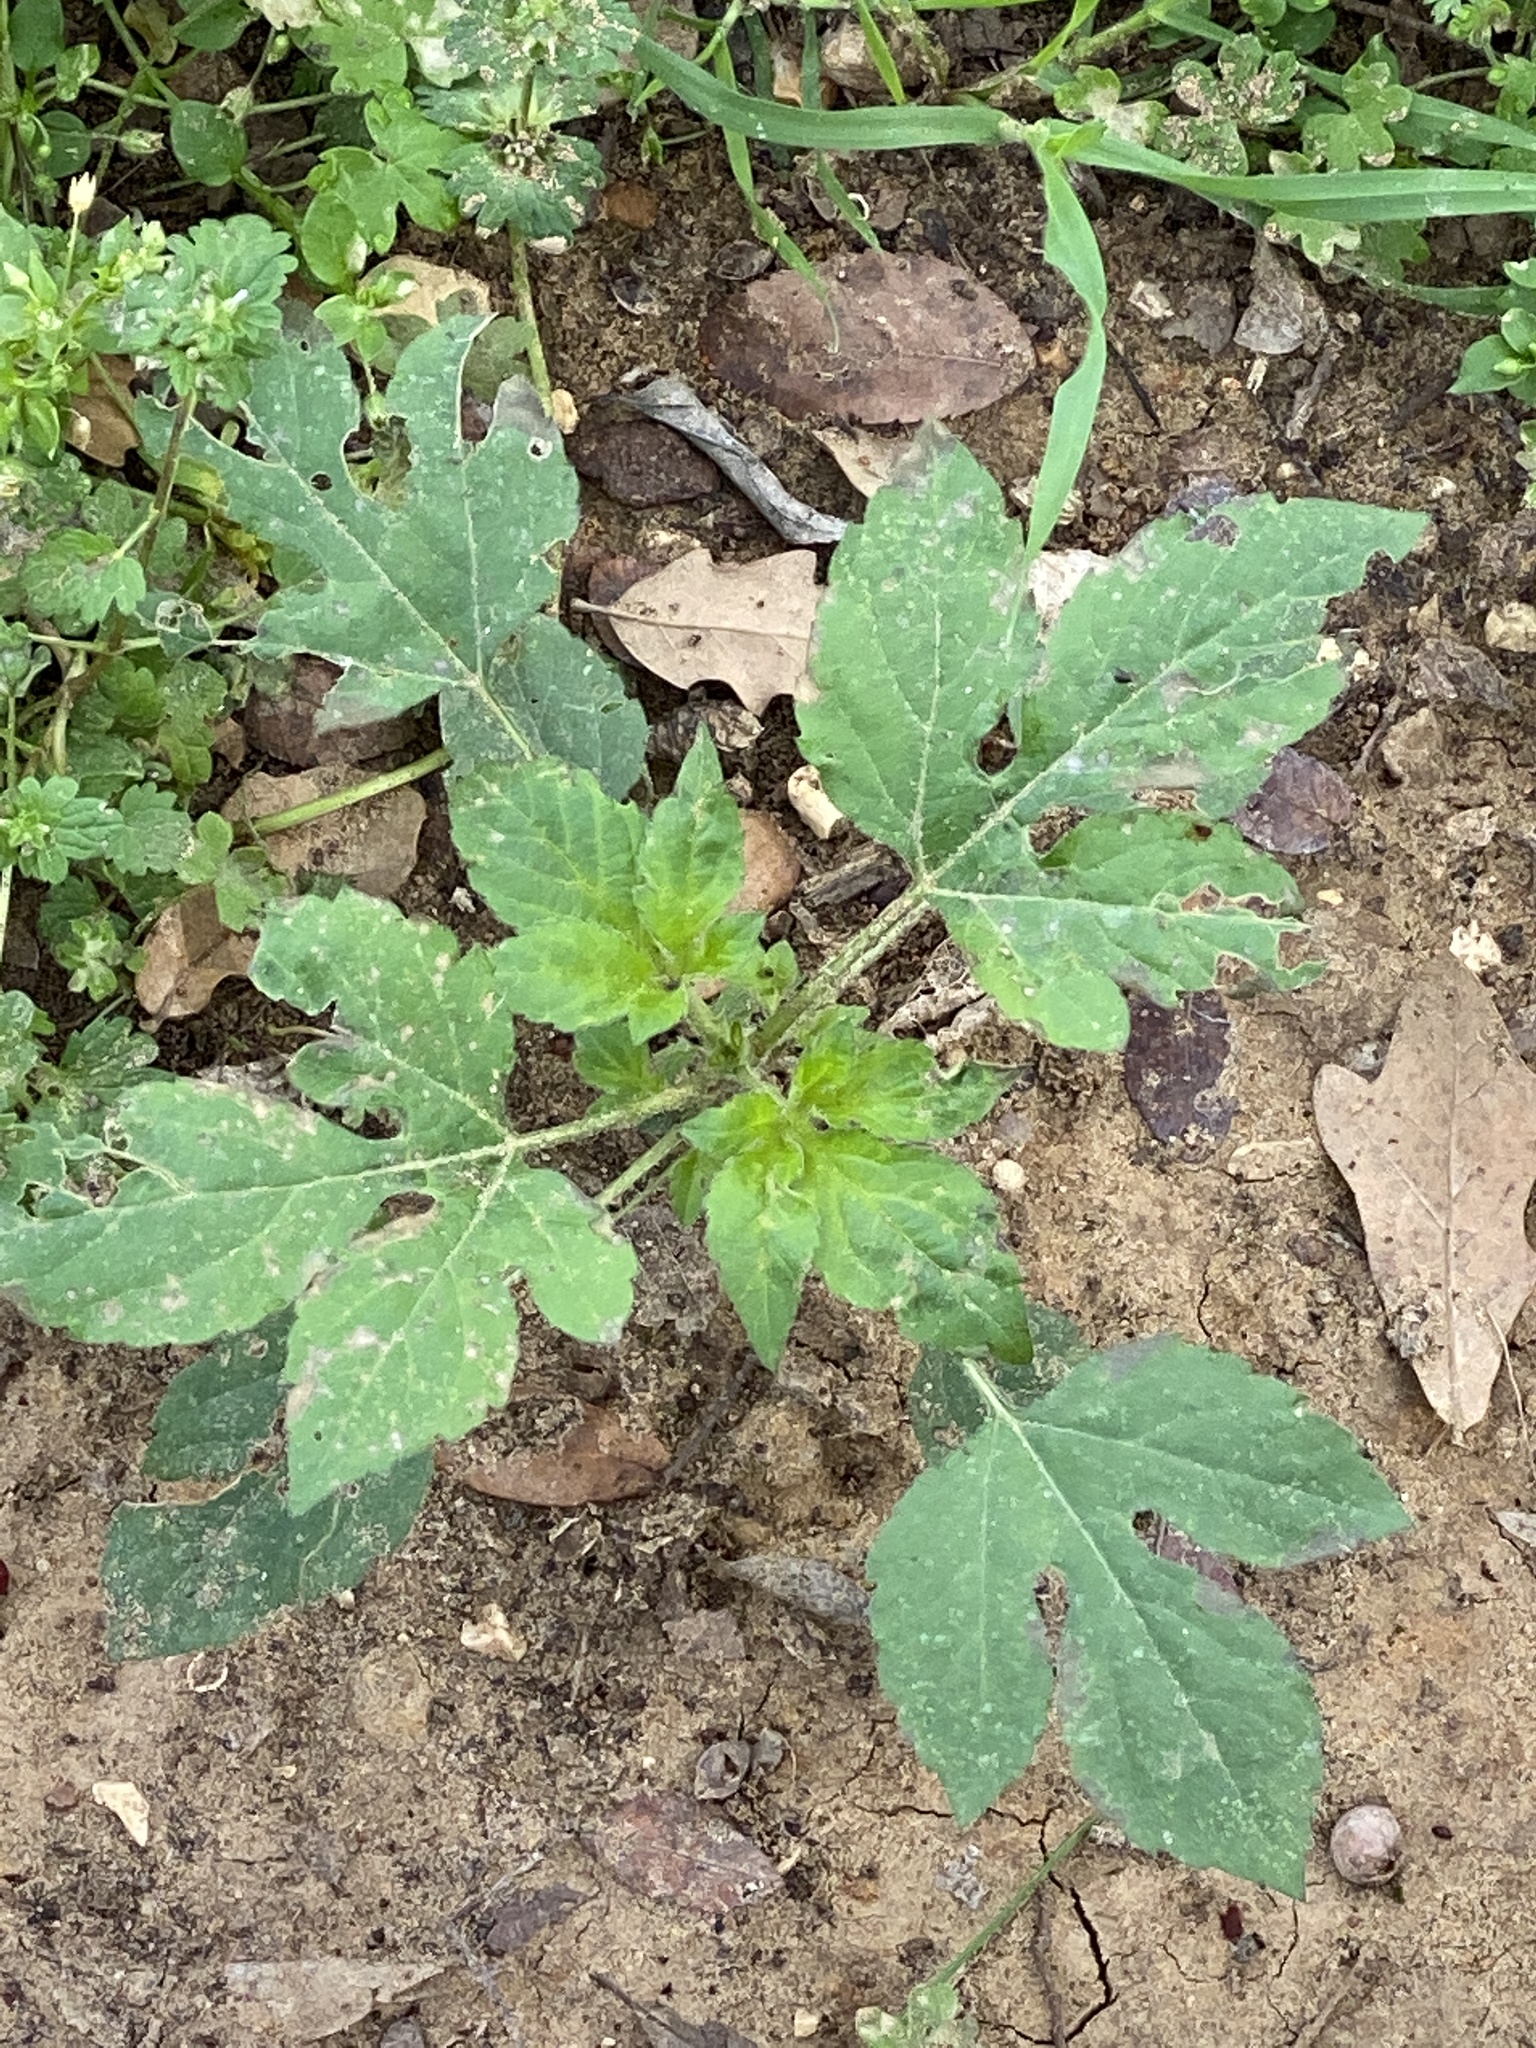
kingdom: Plantae
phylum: Tracheophyta
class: Magnoliopsida
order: Asterales
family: Asteraceae
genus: Ambrosia
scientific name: Ambrosia trifida
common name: Giant ragweed
